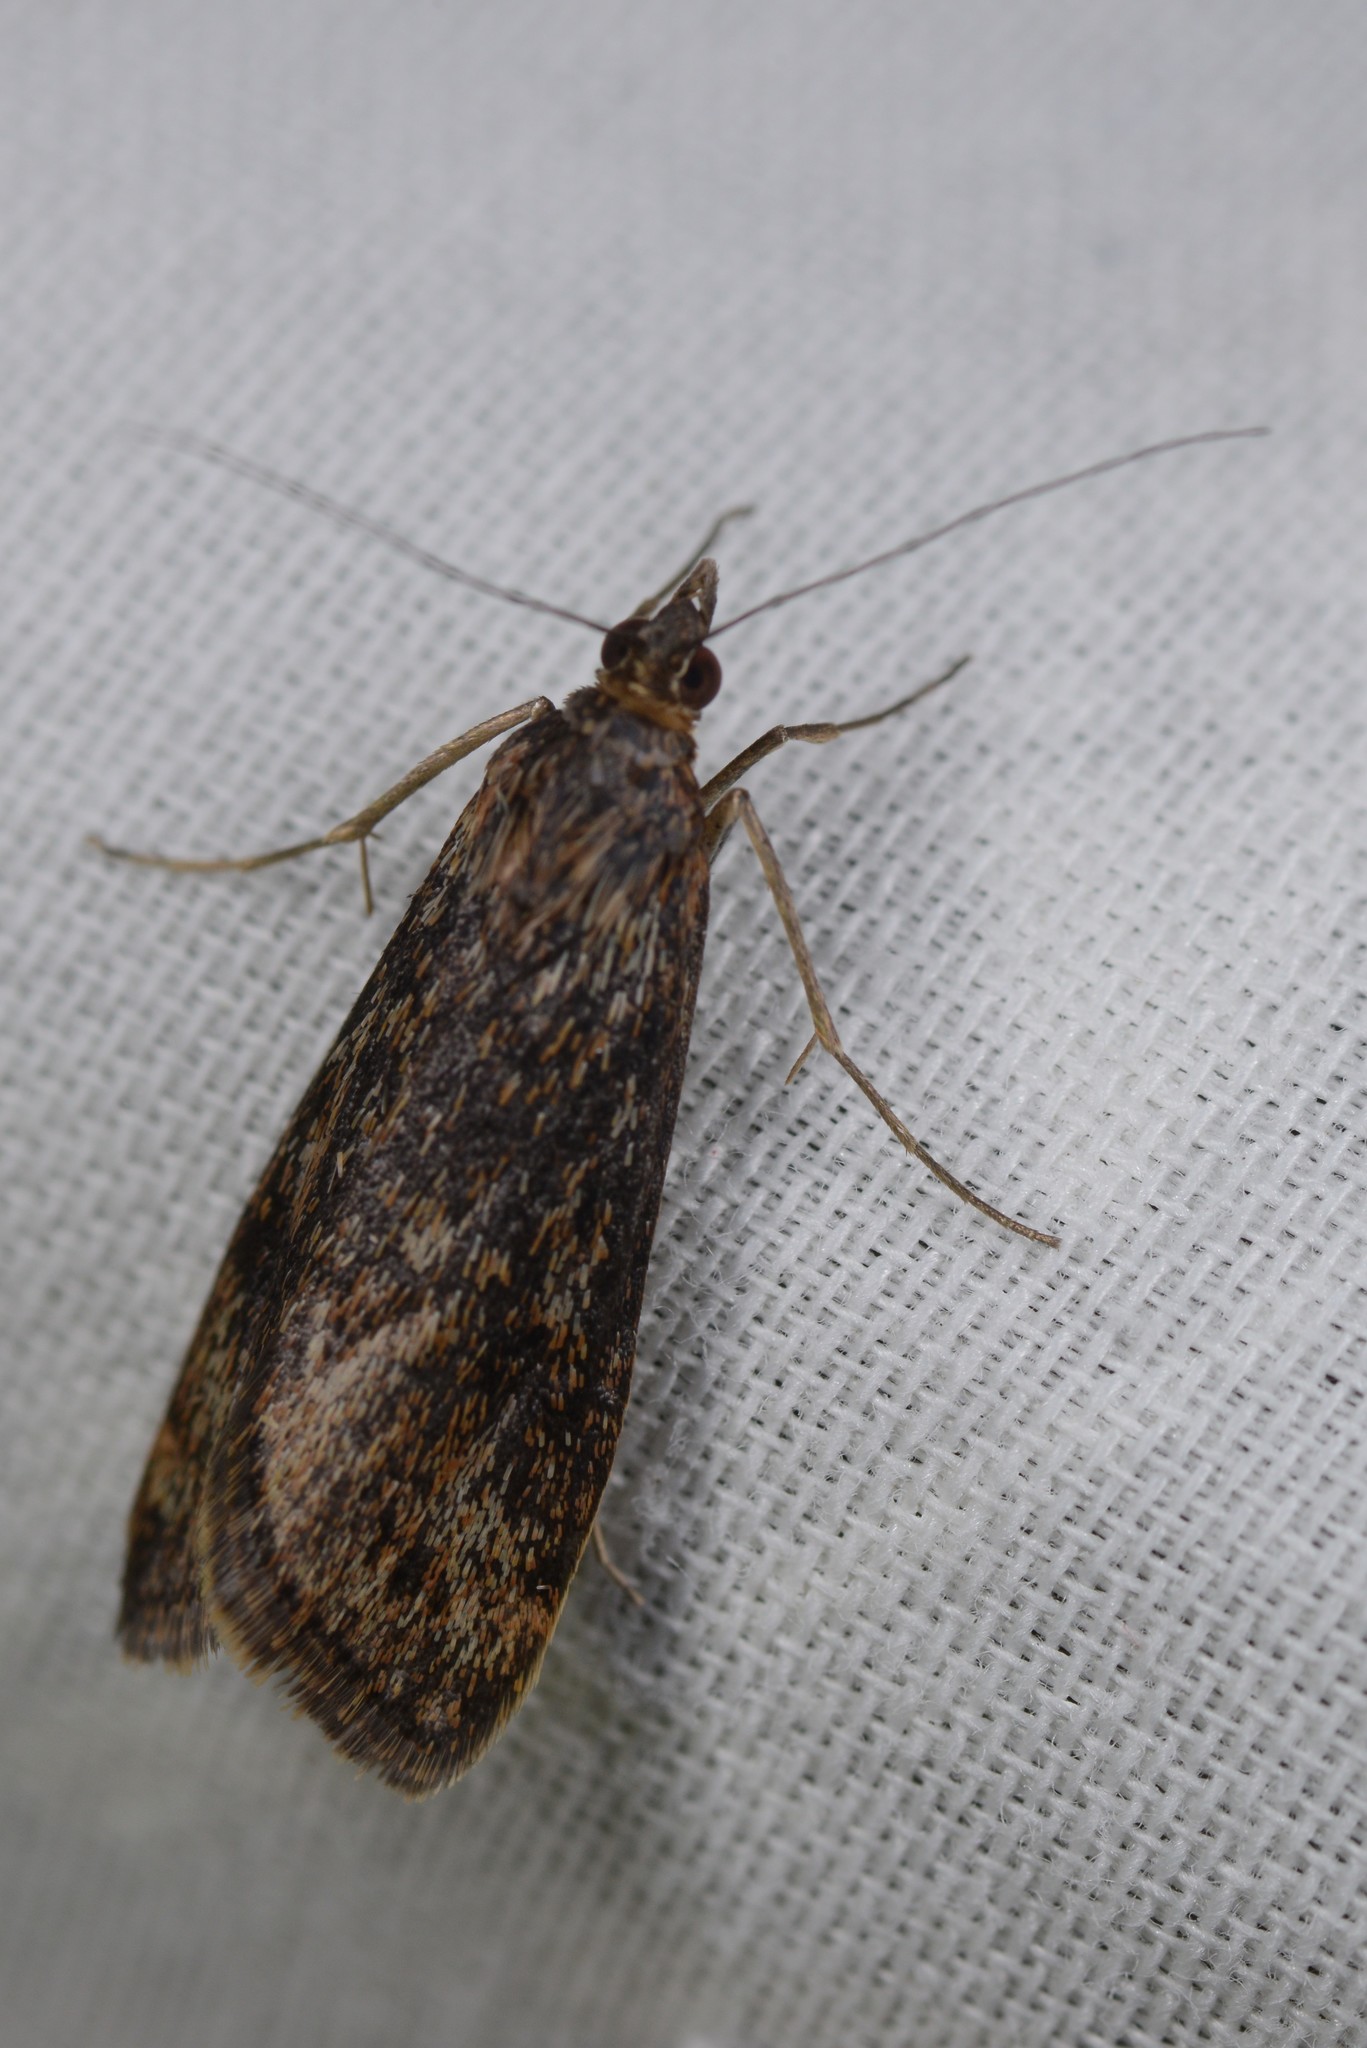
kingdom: Animalia
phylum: Arthropoda
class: Insecta
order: Lepidoptera
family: Crambidae
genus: Achyra
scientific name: Achyra affinitalis
